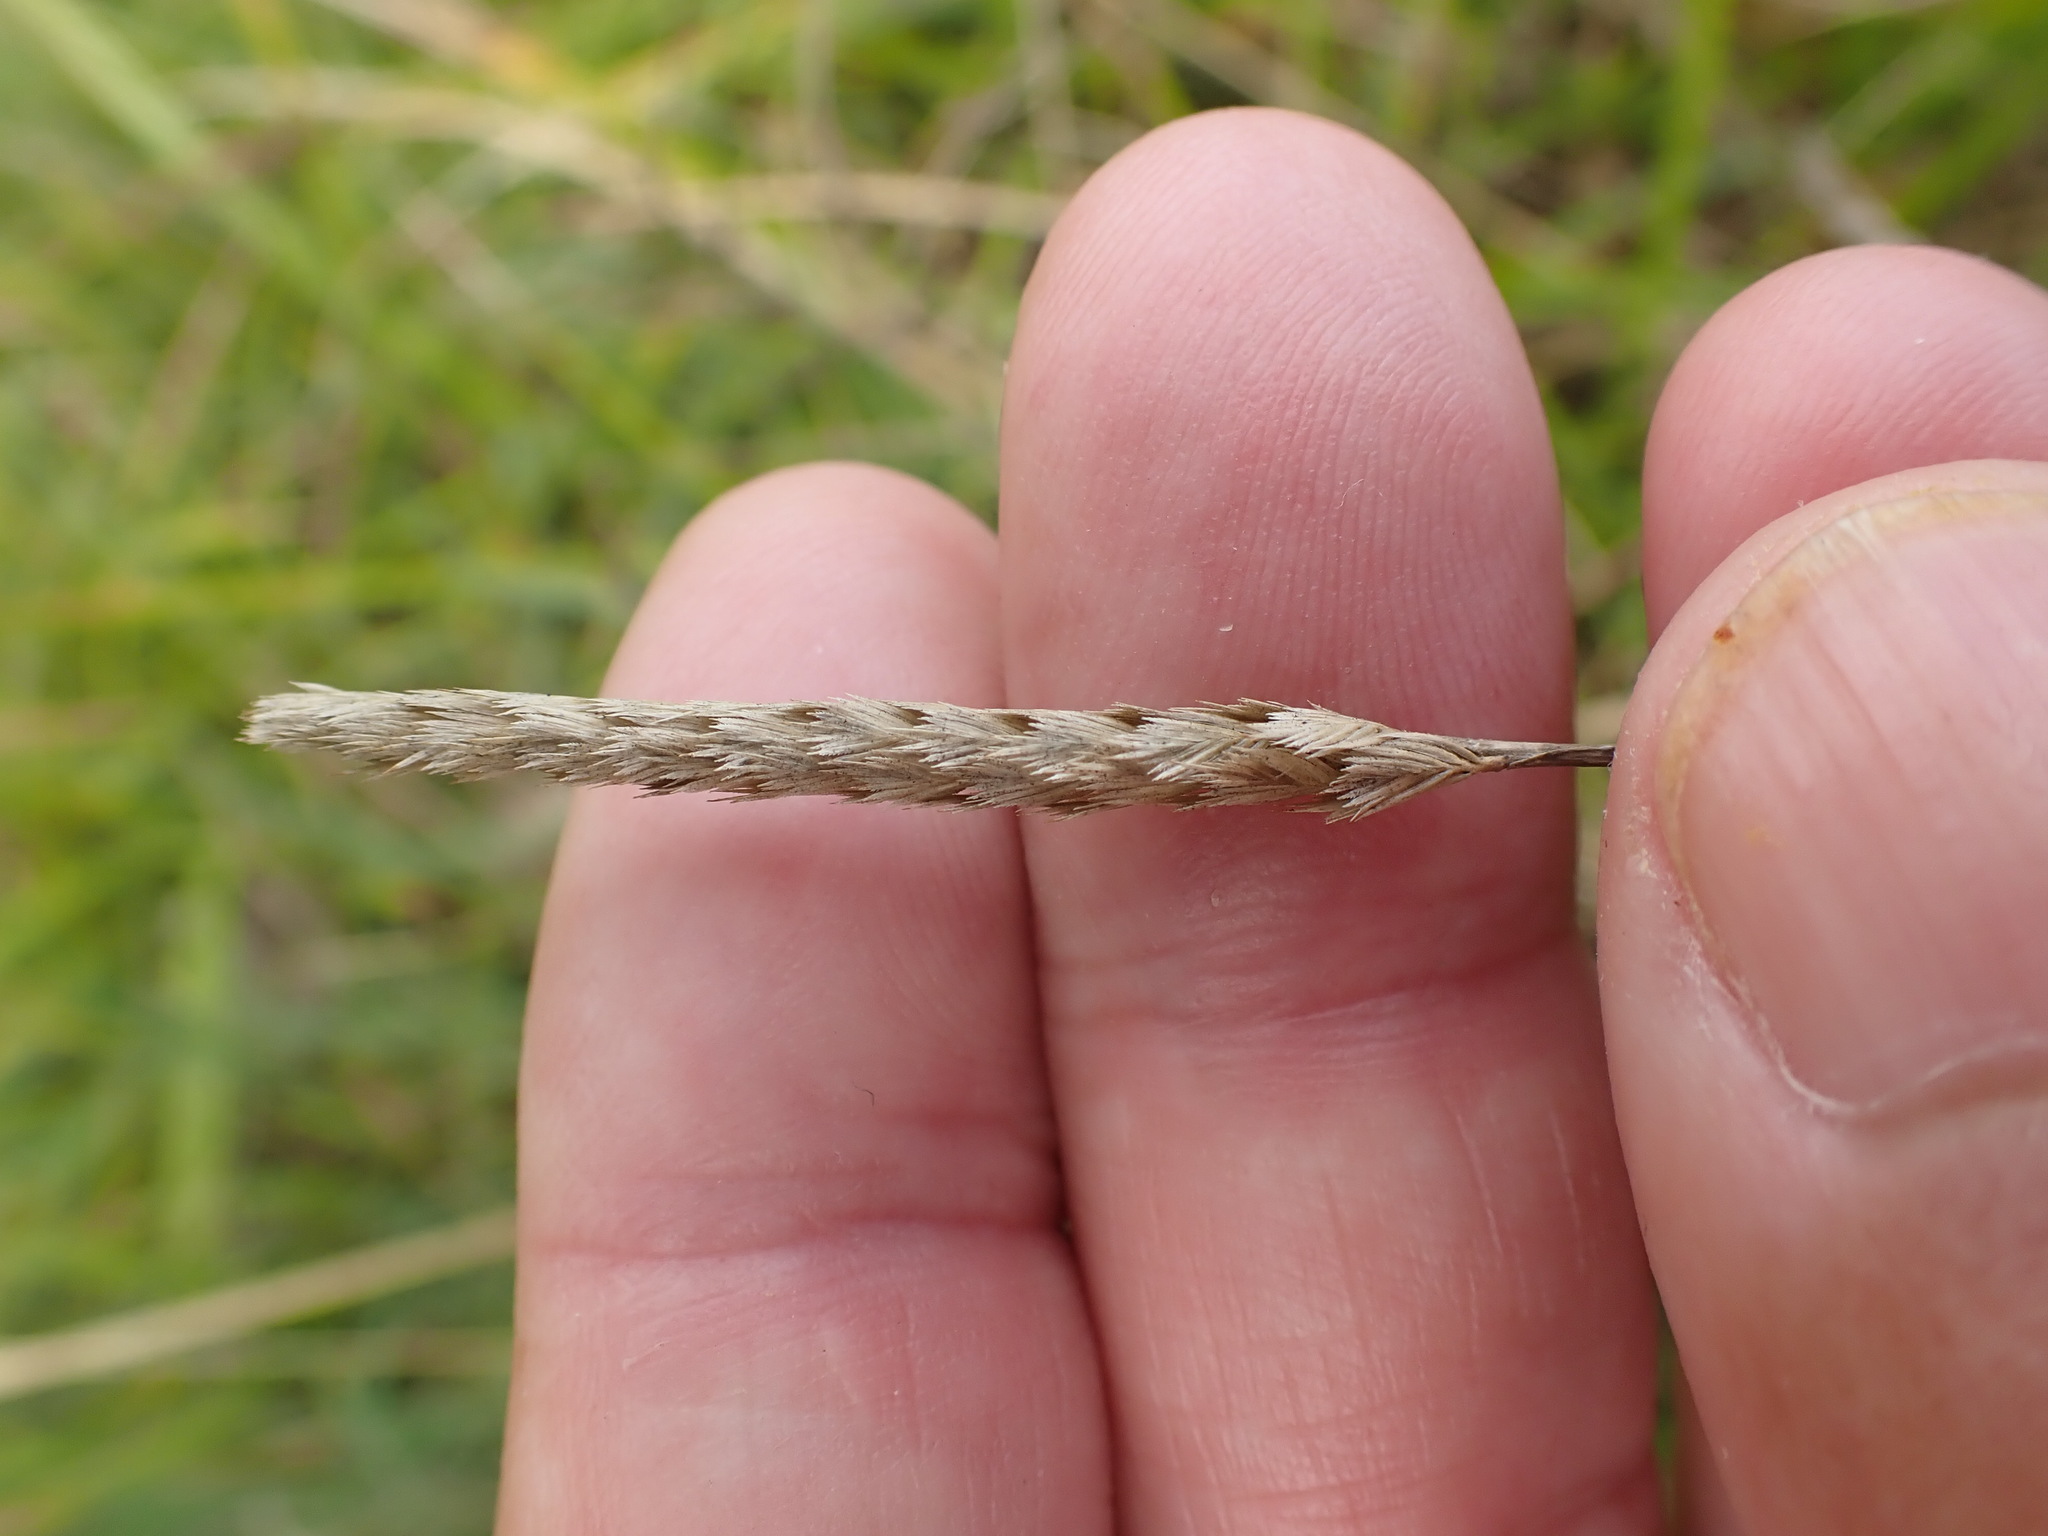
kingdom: Plantae
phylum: Tracheophyta
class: Liliopsida
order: Poales
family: Poaceae
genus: Cynosurus
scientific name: Cynosurus cristatus
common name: Crested dog's-tail
